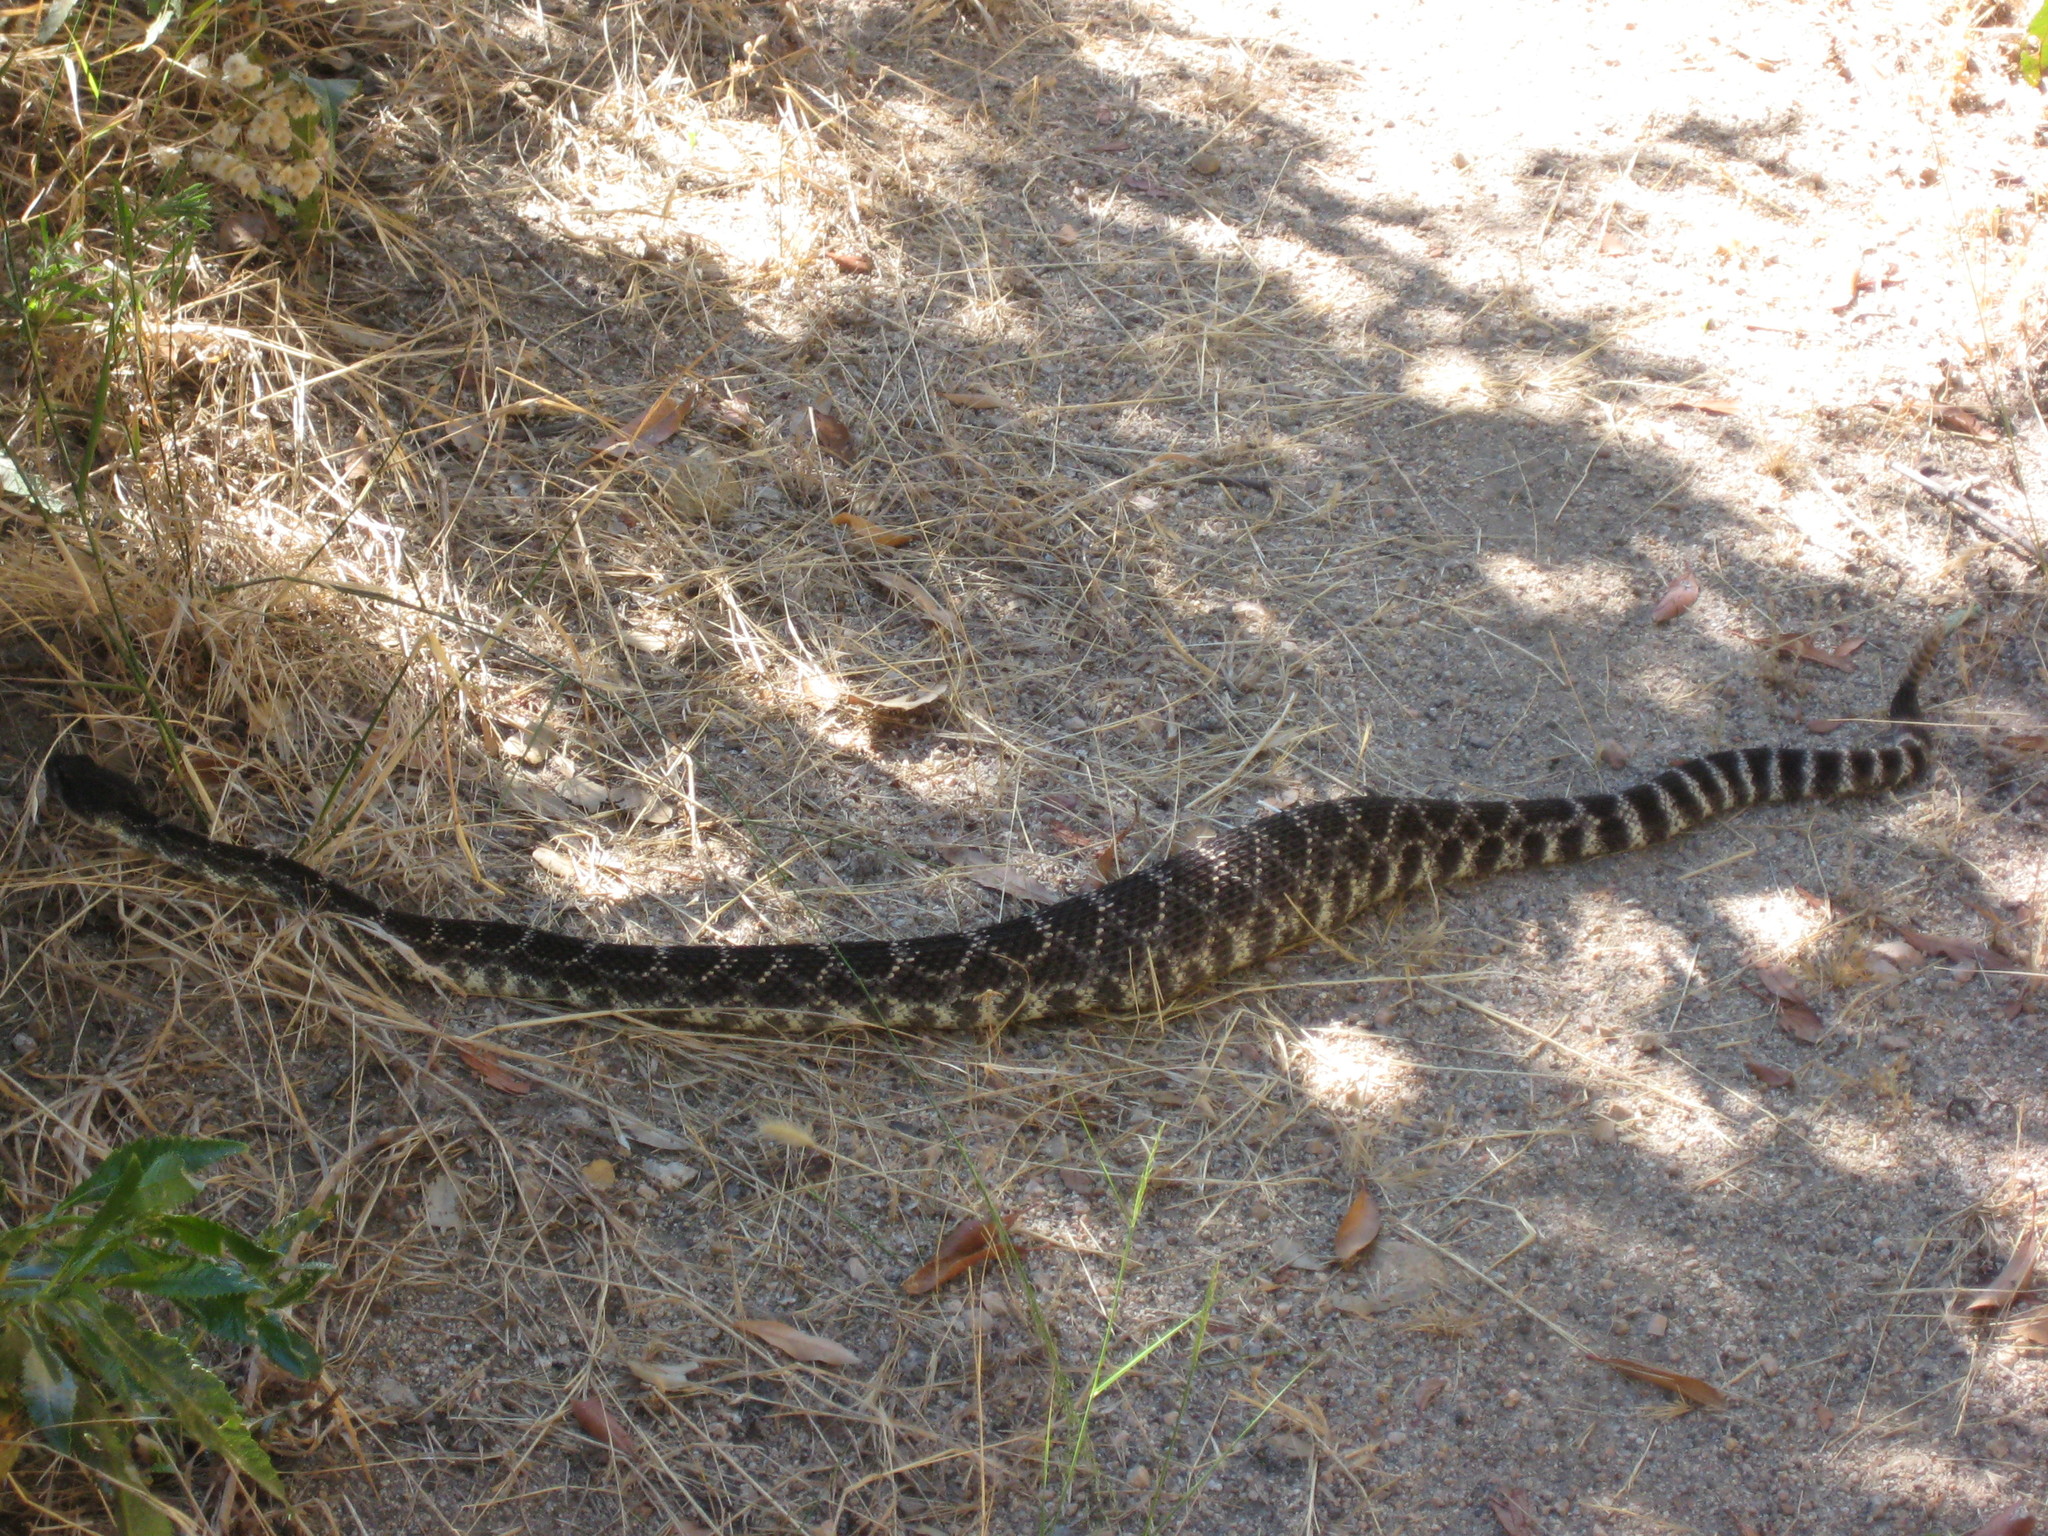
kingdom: Animalia
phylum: Chordata
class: Squamata
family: Viperidae
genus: Crotalus
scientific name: Crotalus oreganus
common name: Abyssus
